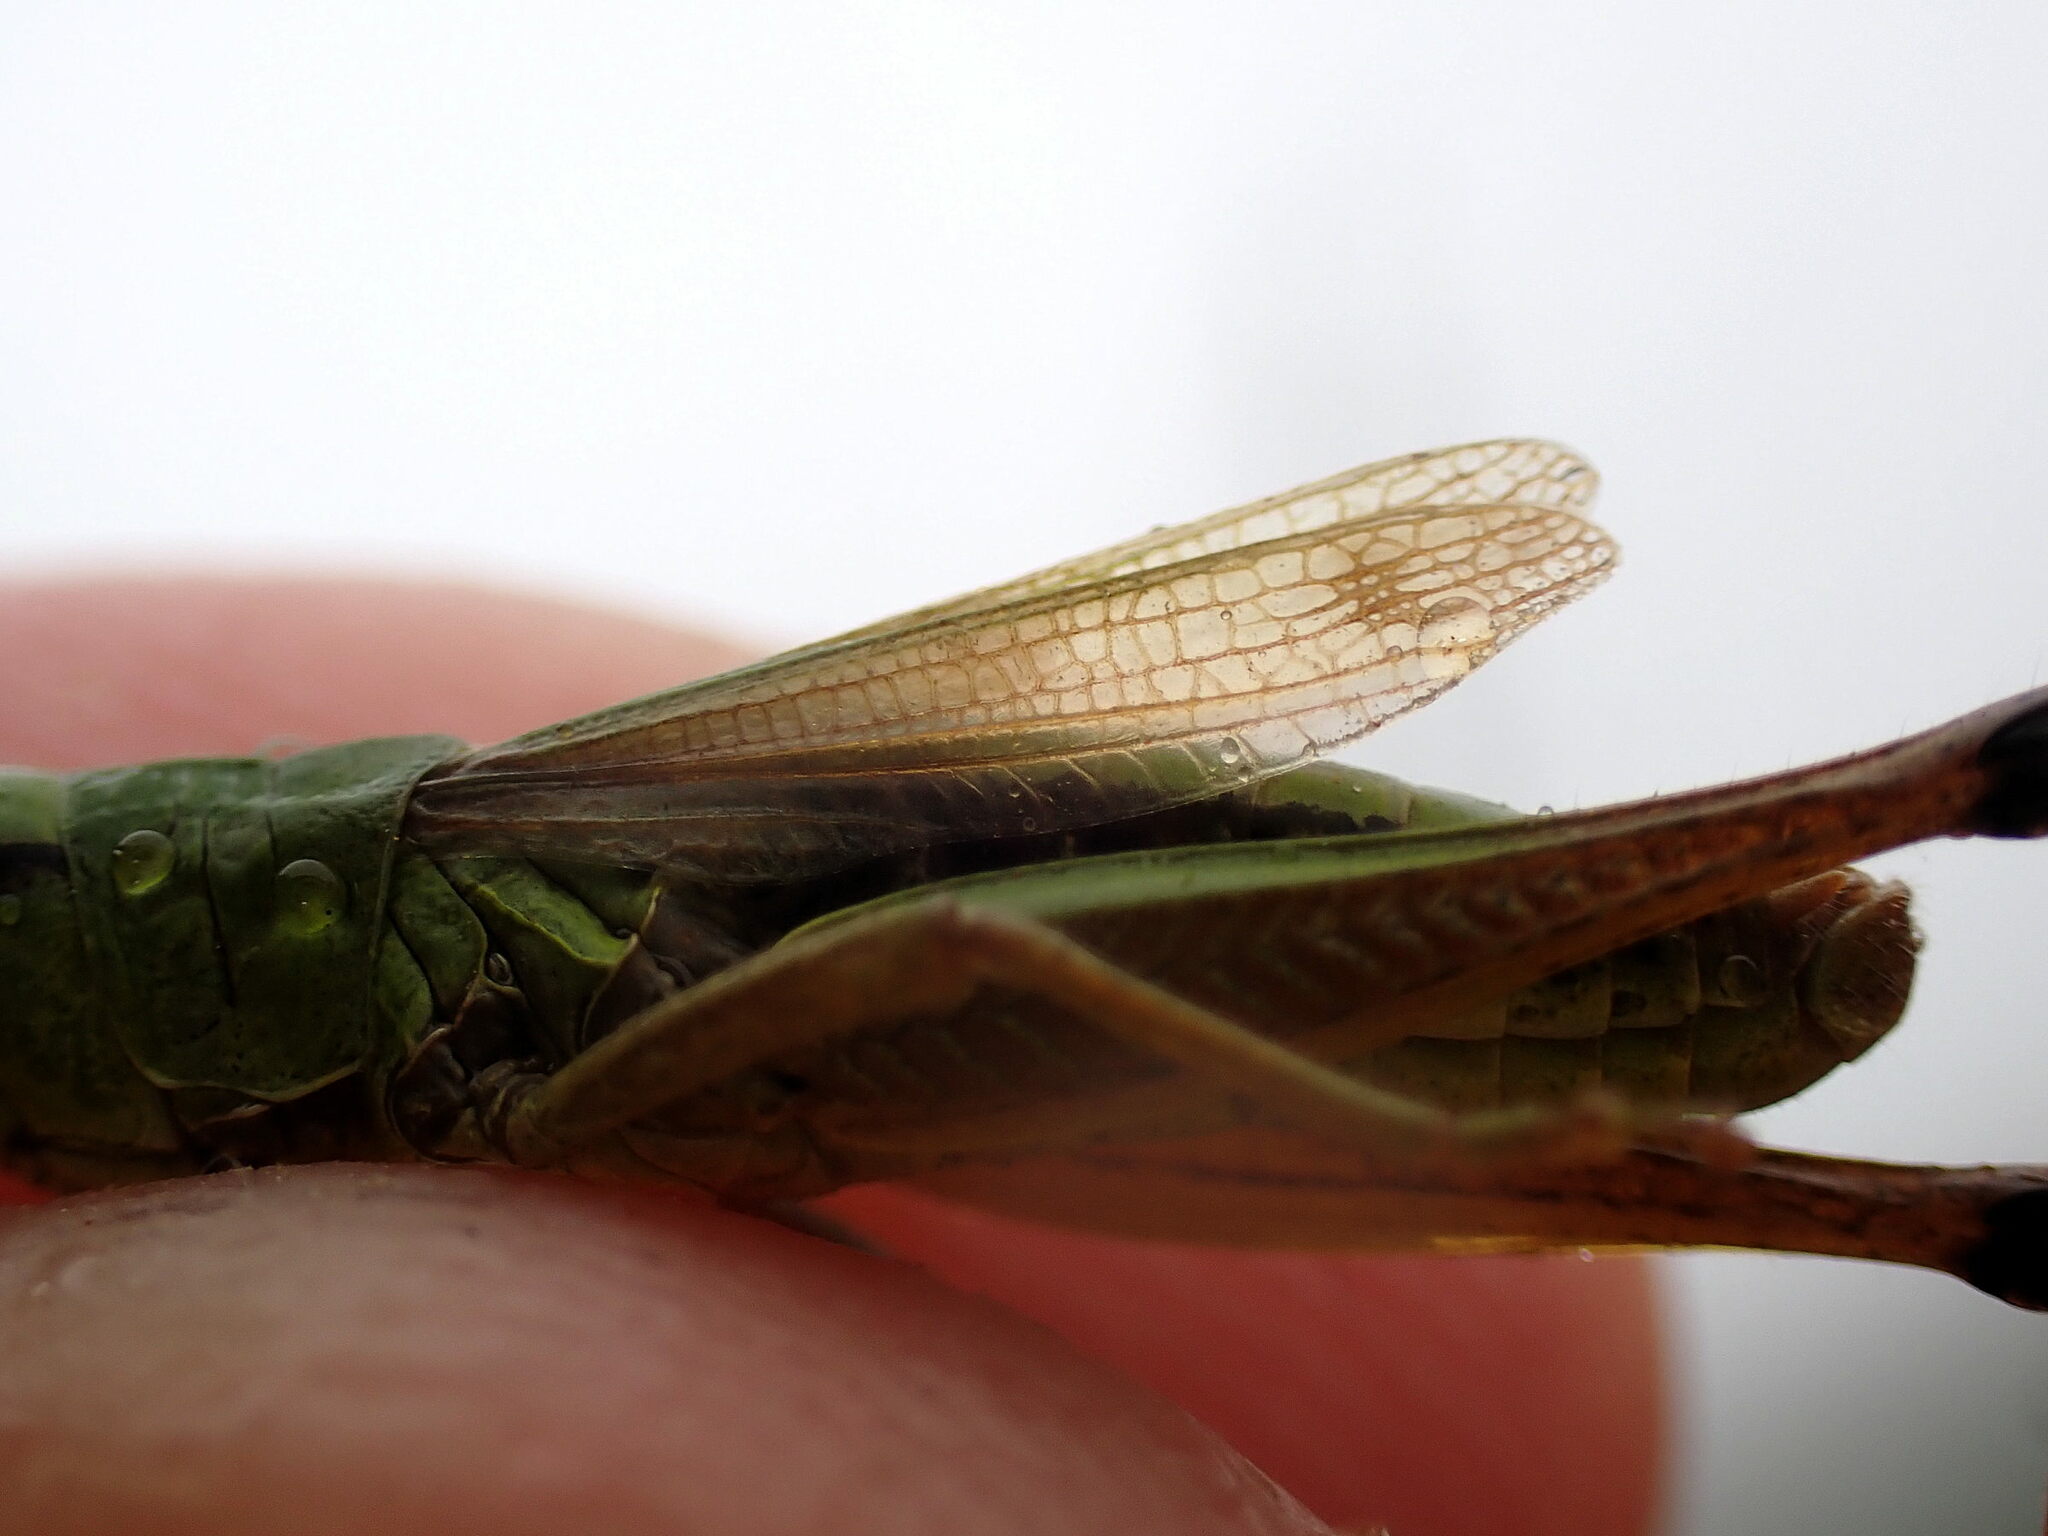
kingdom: Animalia
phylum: Arthropoda
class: Insecta
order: Orthoptera
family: Acrididae
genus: Pseudochorthippus
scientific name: Pseudochorthippus parallelus
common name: Meadow grasshopper
